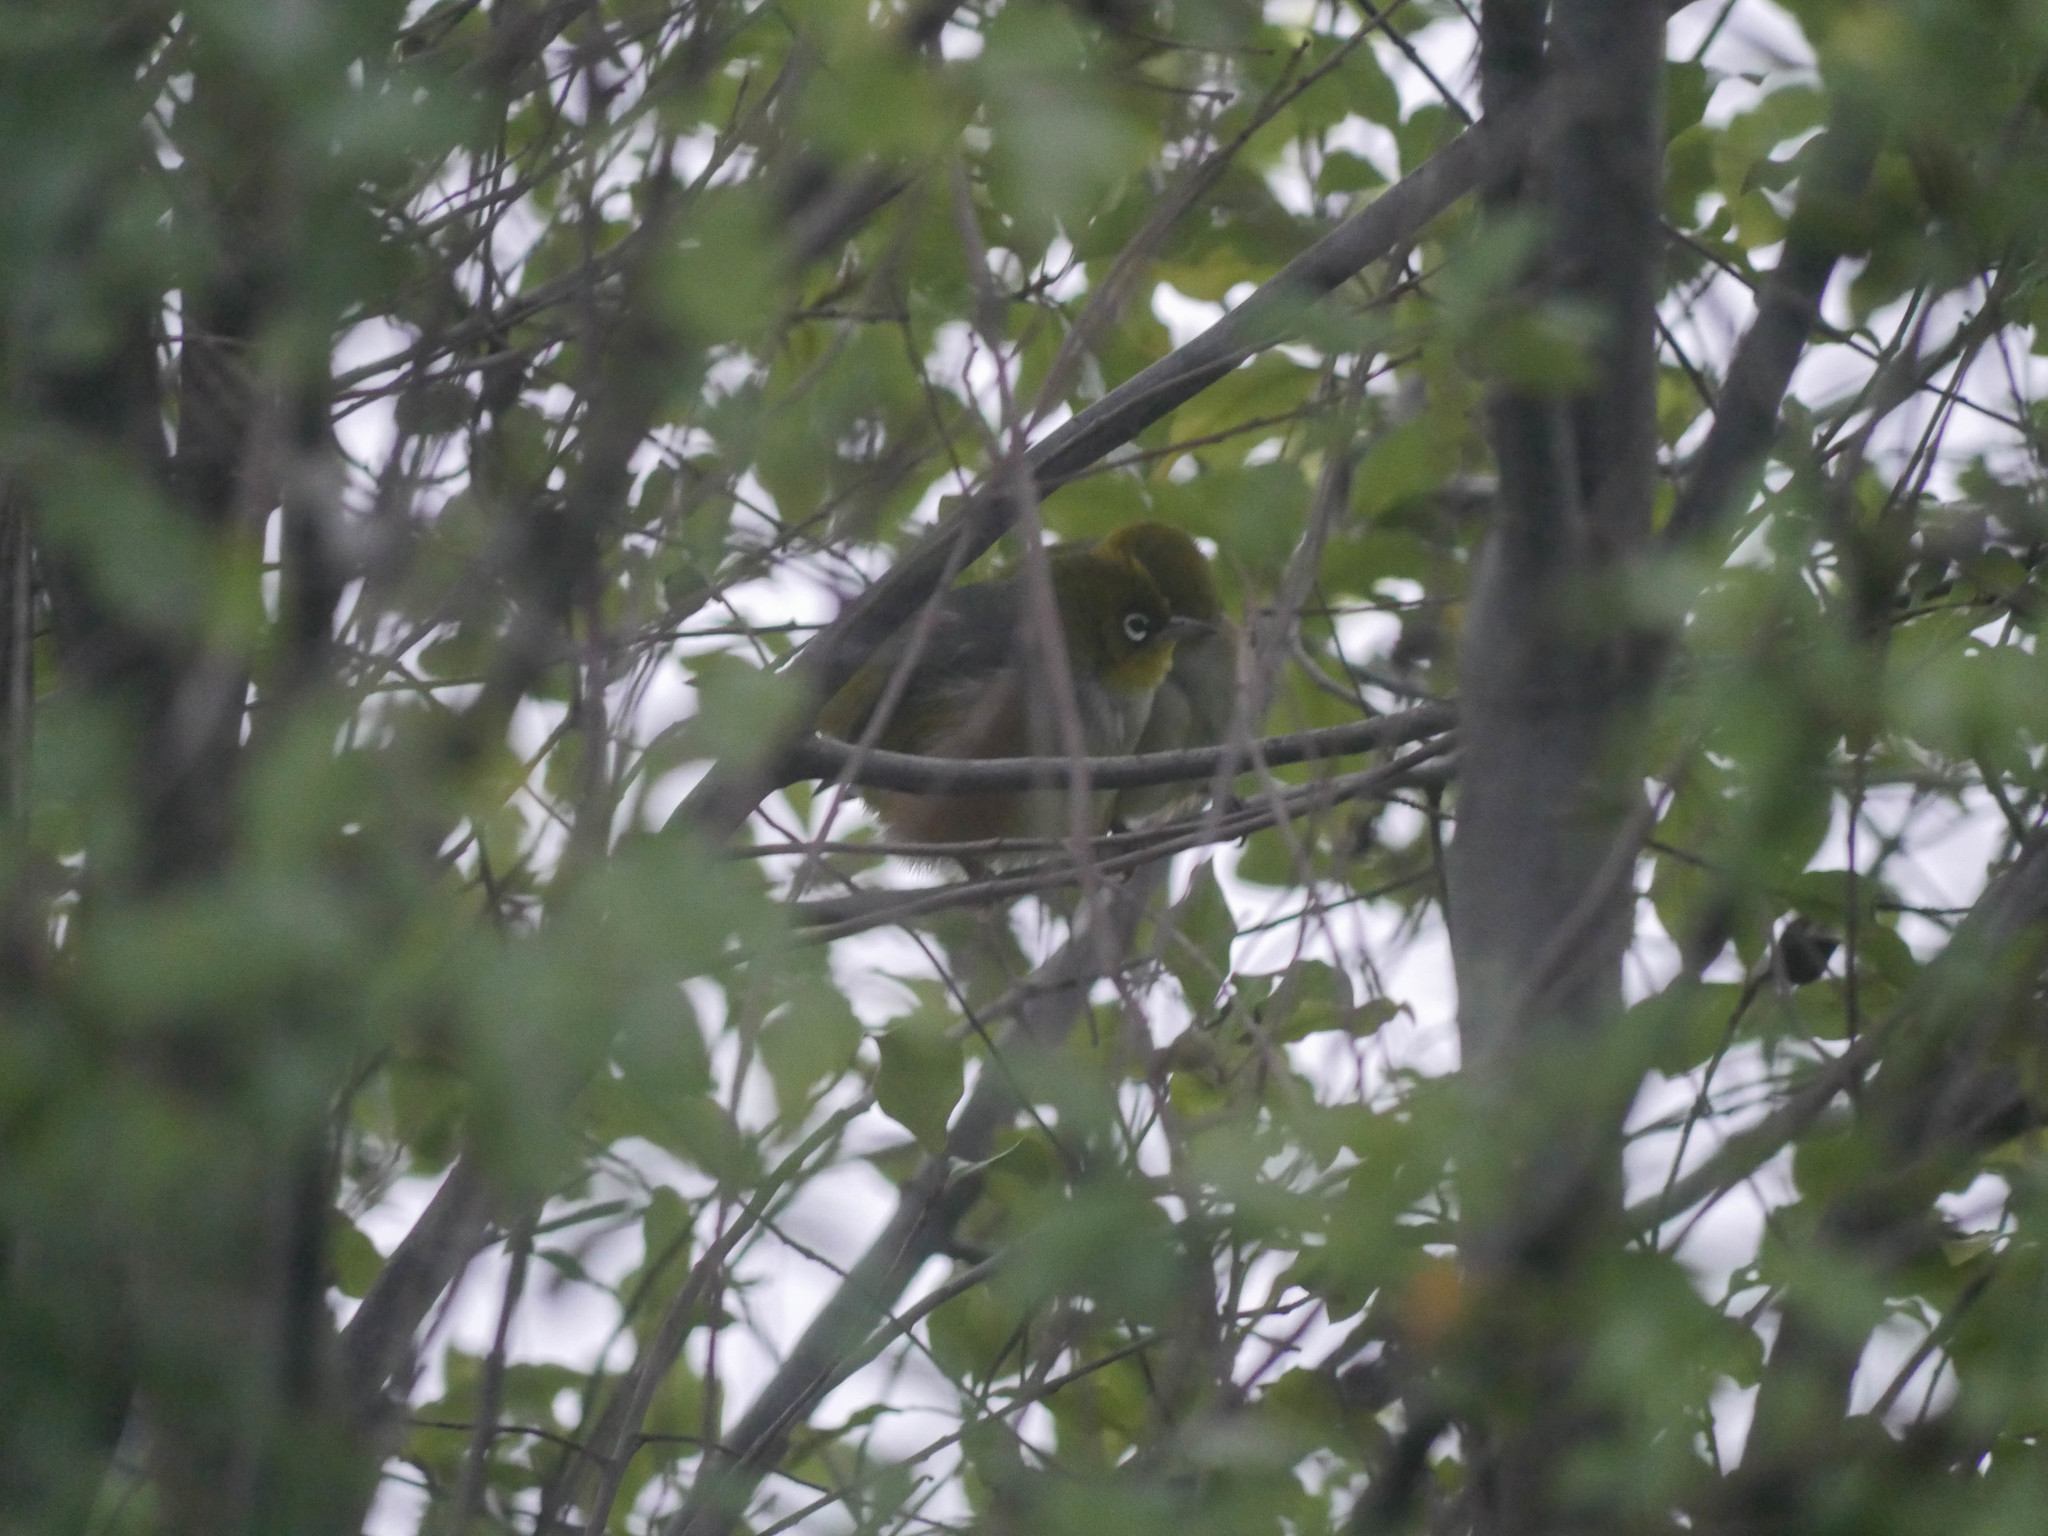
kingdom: Animalia
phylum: Chordata
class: Aves
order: Passeriformes
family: Zosteropidae
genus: Zosterops
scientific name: Zosterops lateralis
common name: Silvereye
